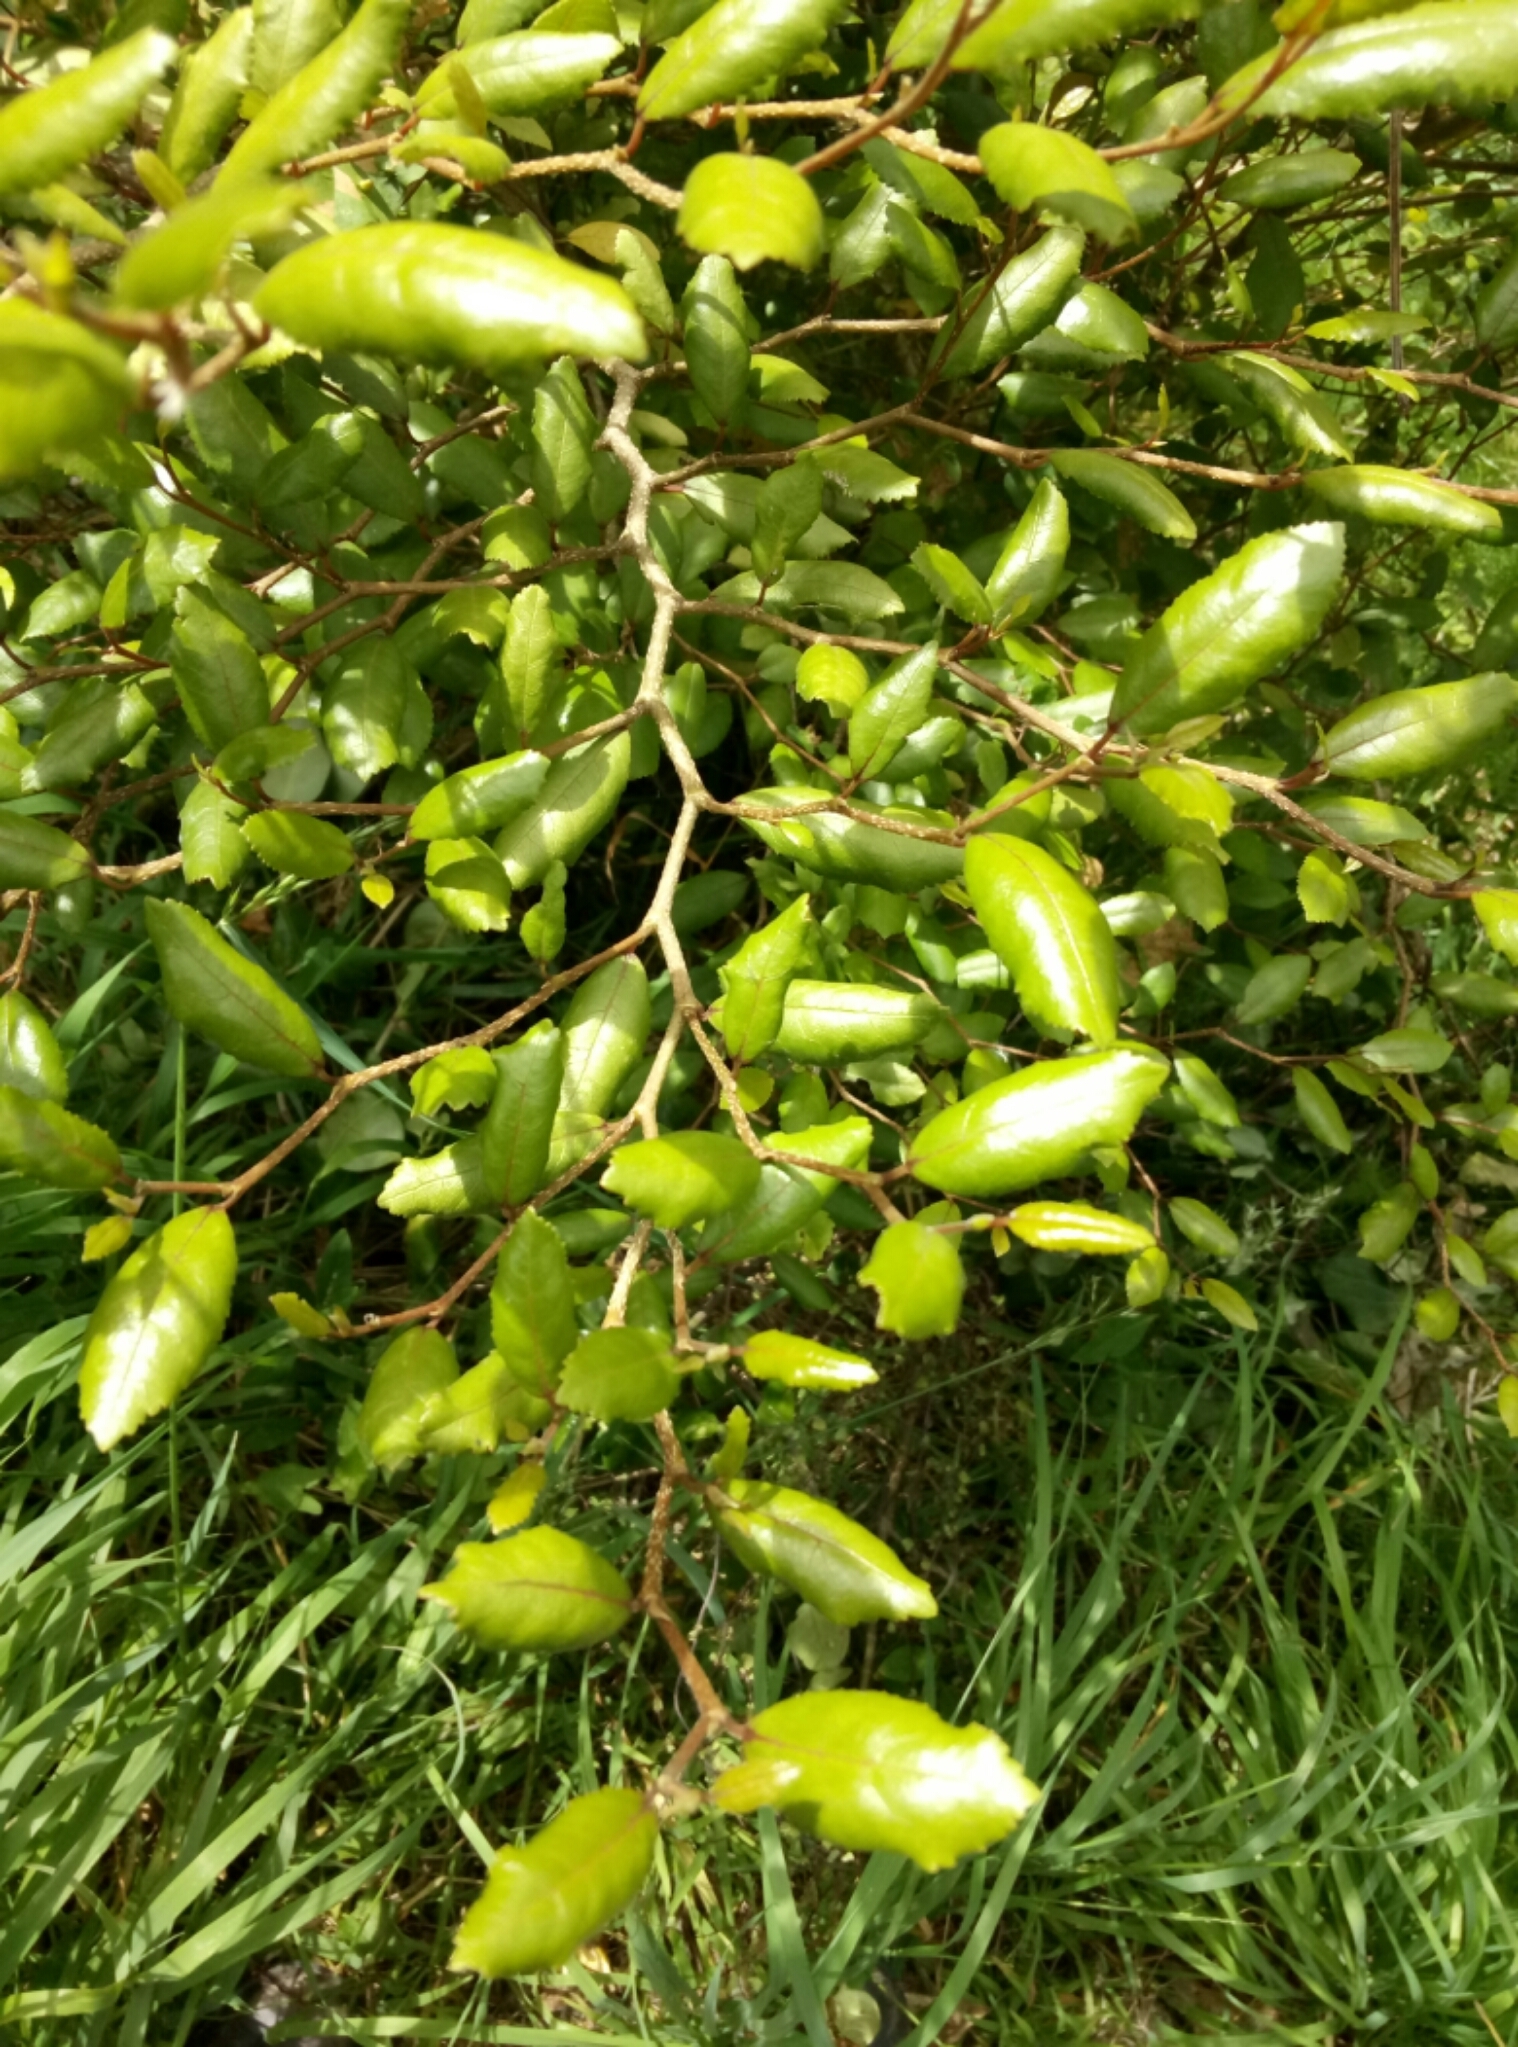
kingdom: Plantae
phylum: Tracheophyta
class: Magnoliopsida
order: Rosales
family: Moraceae
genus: Paratrophis
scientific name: Paratrophis banksii
